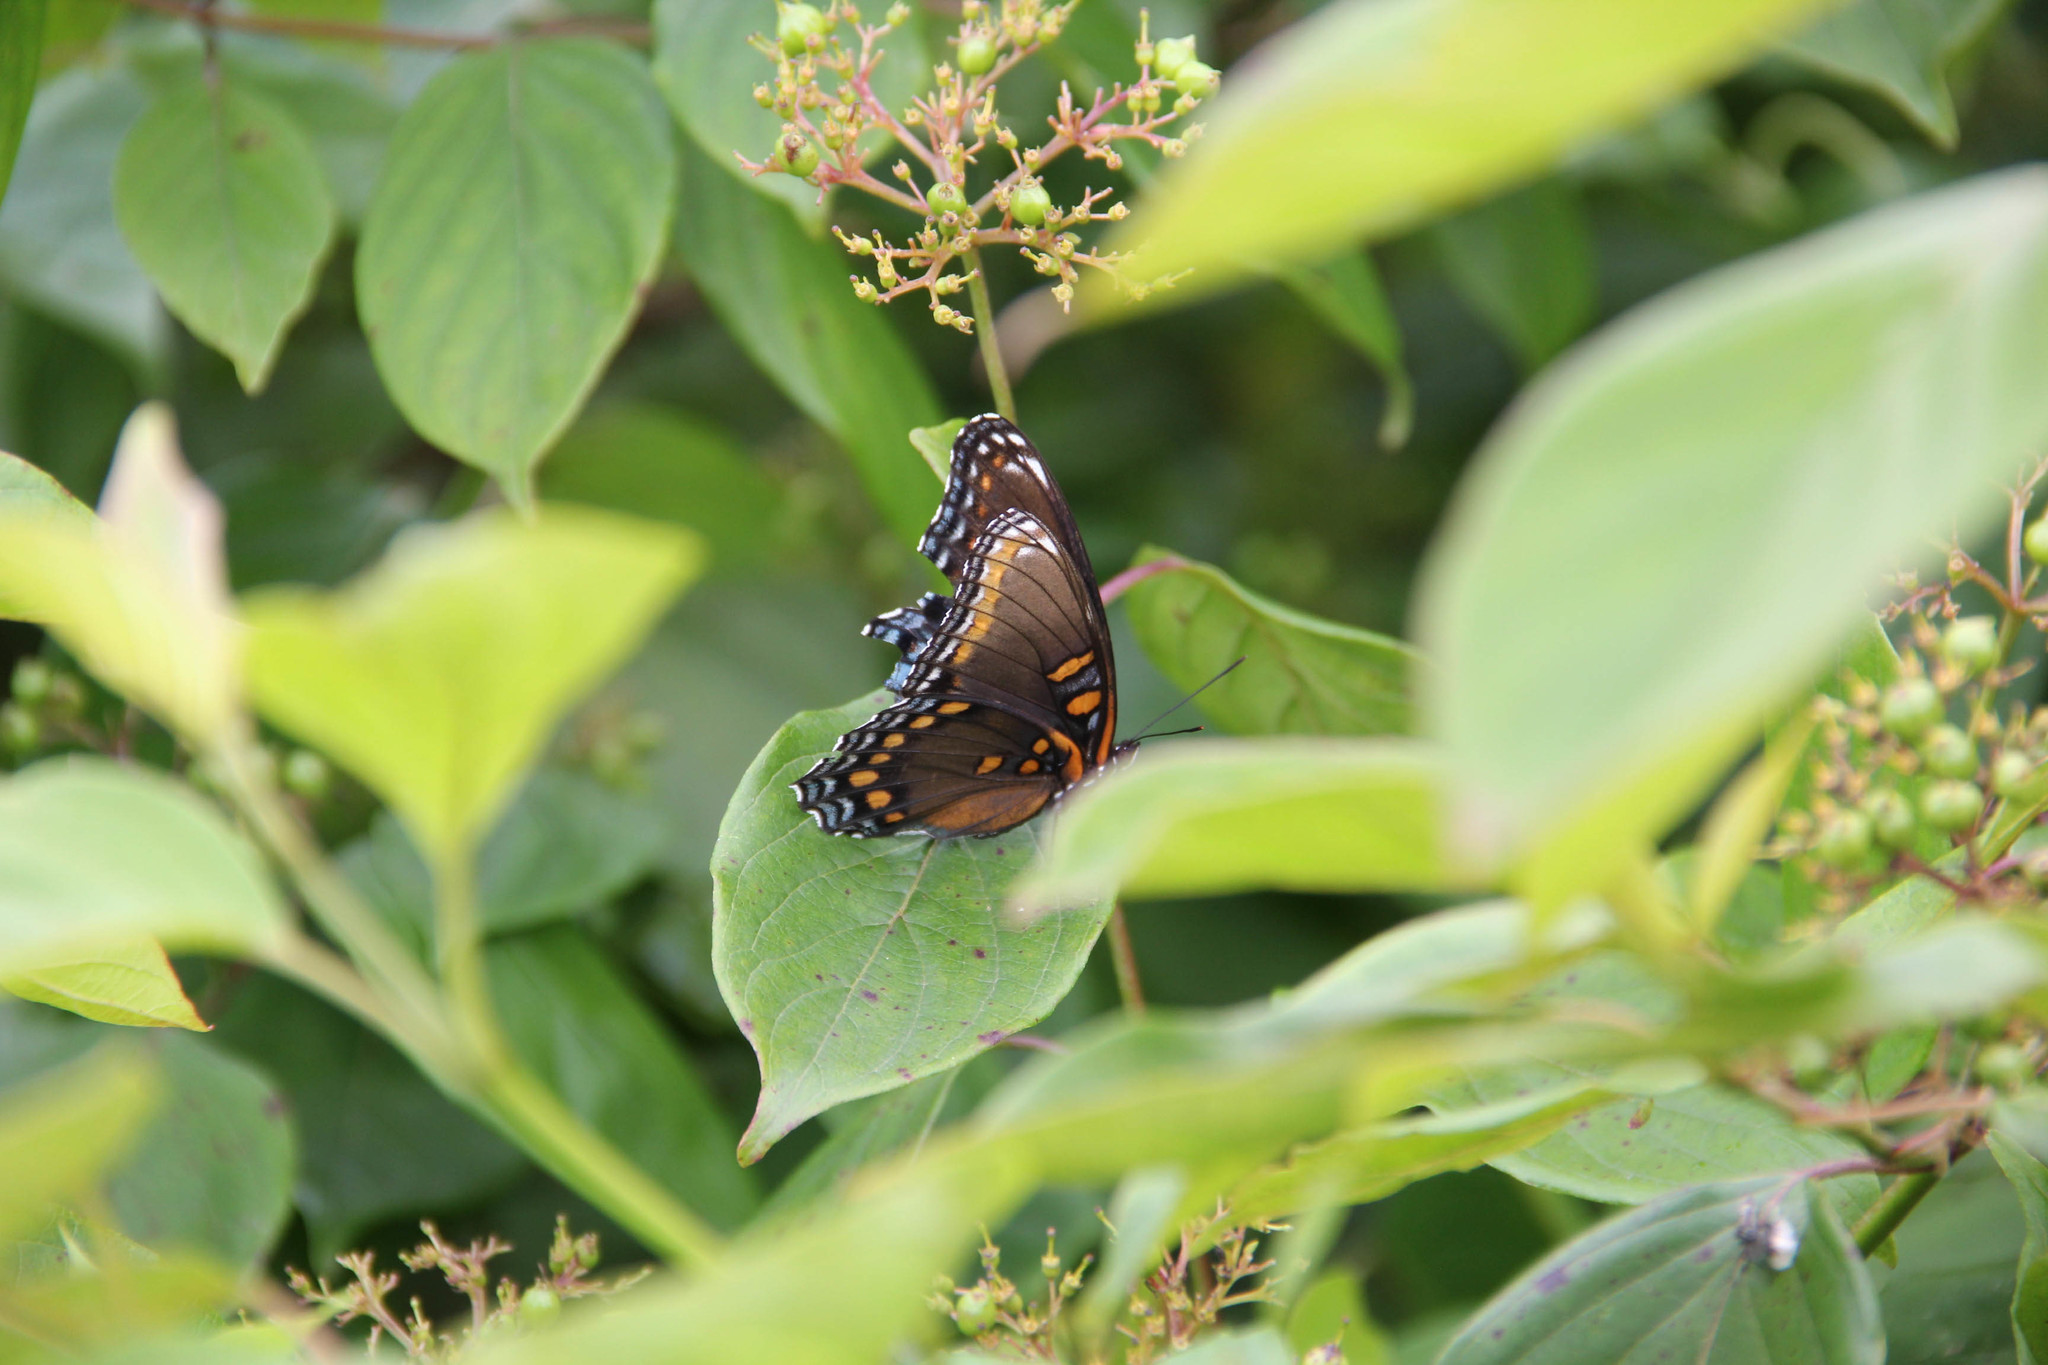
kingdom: Animalia
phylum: Arthropoda
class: Insecta
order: Lepidoptera
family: Nymphalidae
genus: Limenitis
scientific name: Limenitis astyanax
